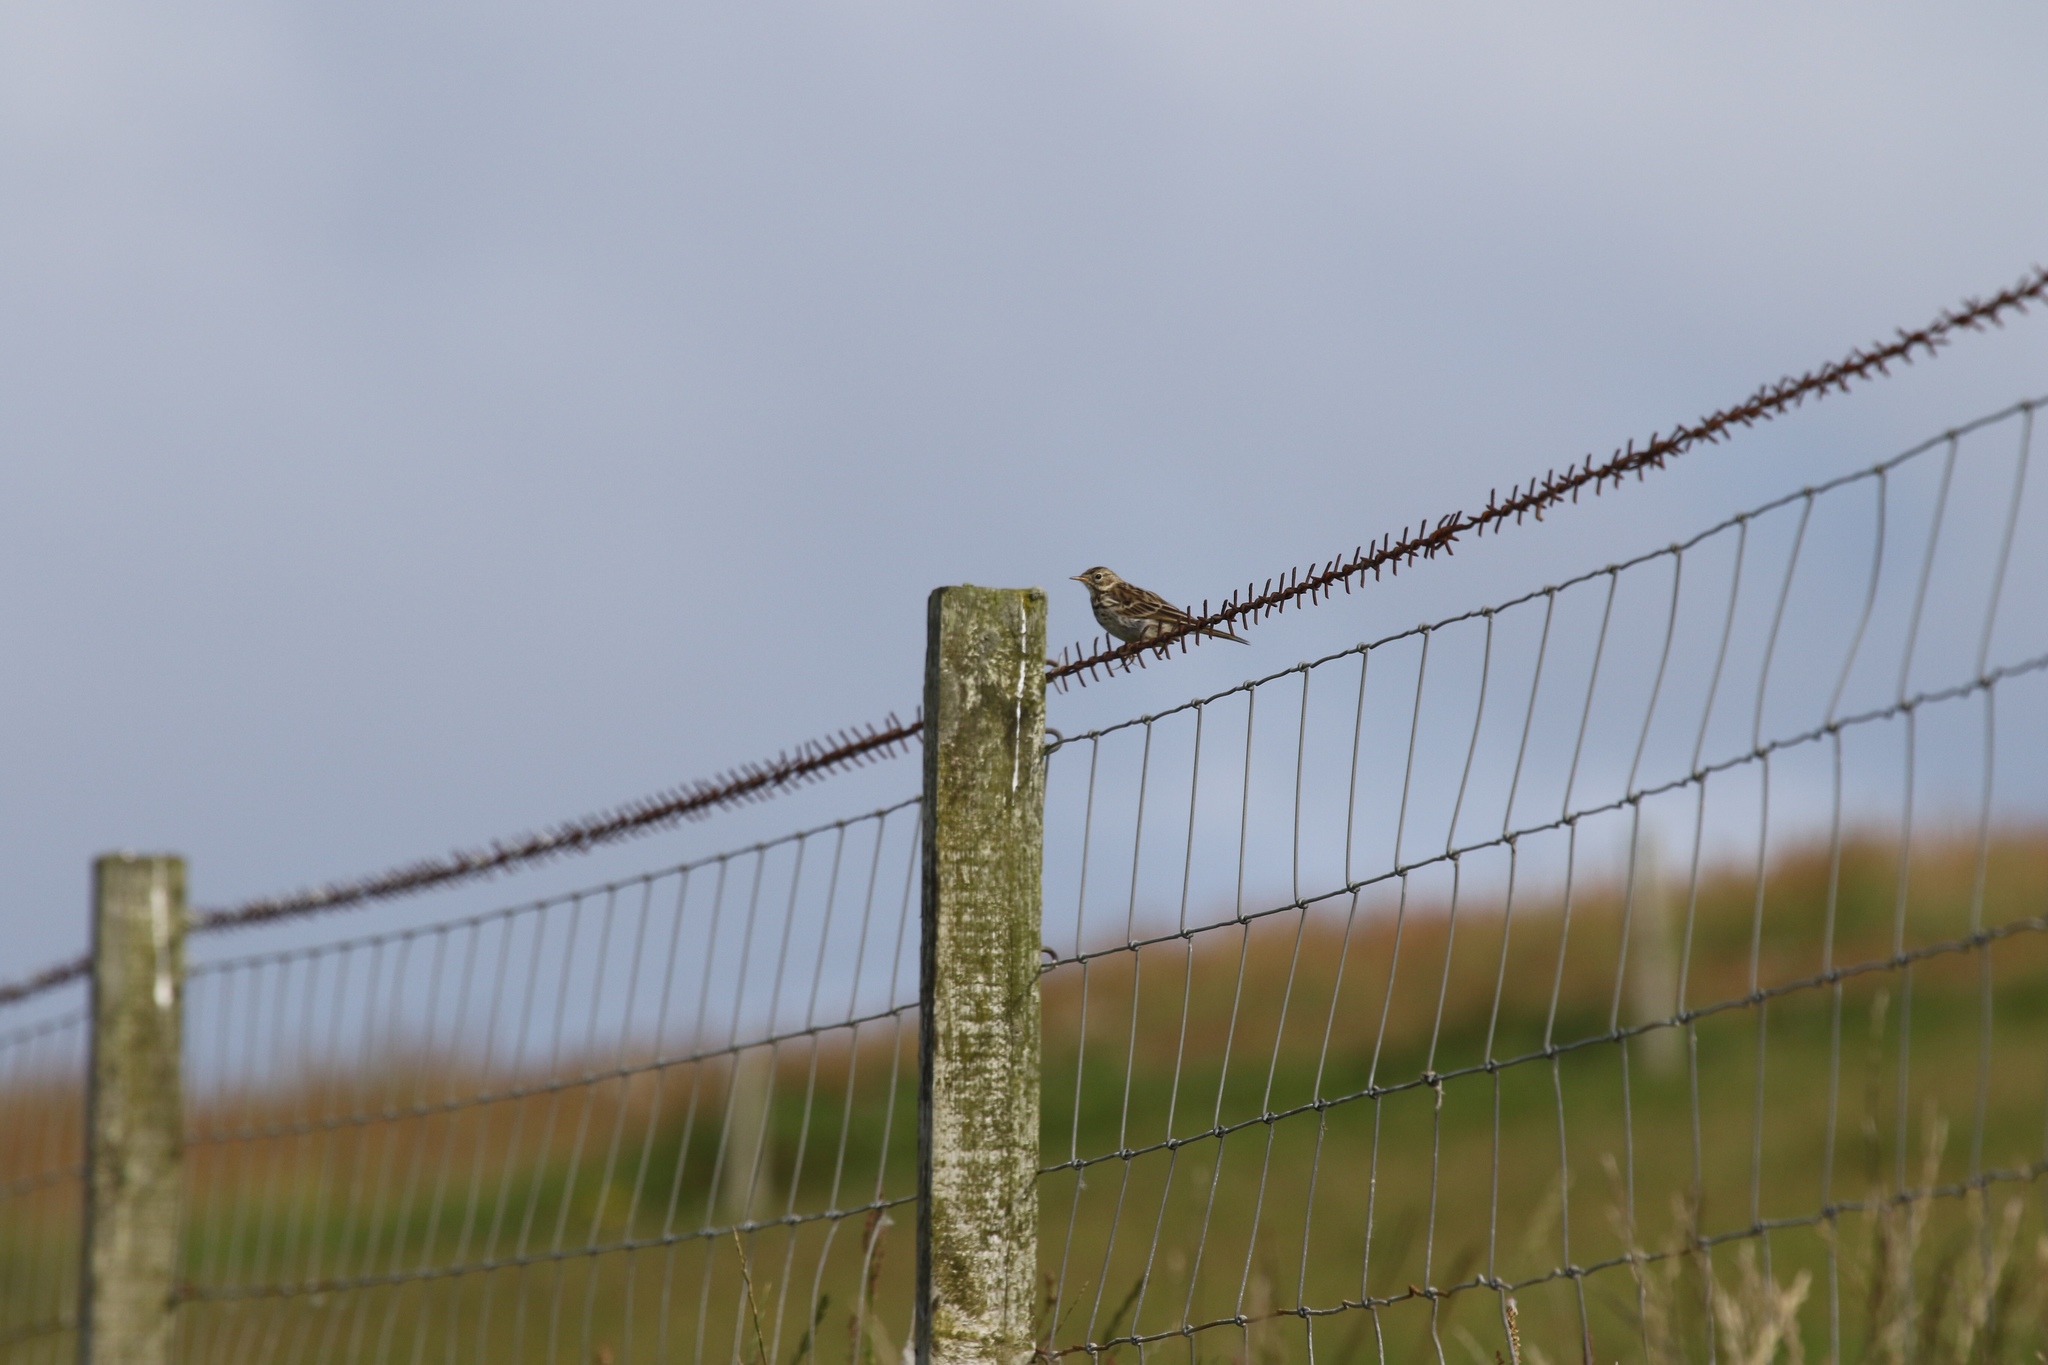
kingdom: Animalia
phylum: Chordata
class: Aves
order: Passeriformes
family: Motacillidae
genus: Anthus
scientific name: Anthus pratensis
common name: Meadow pipit
